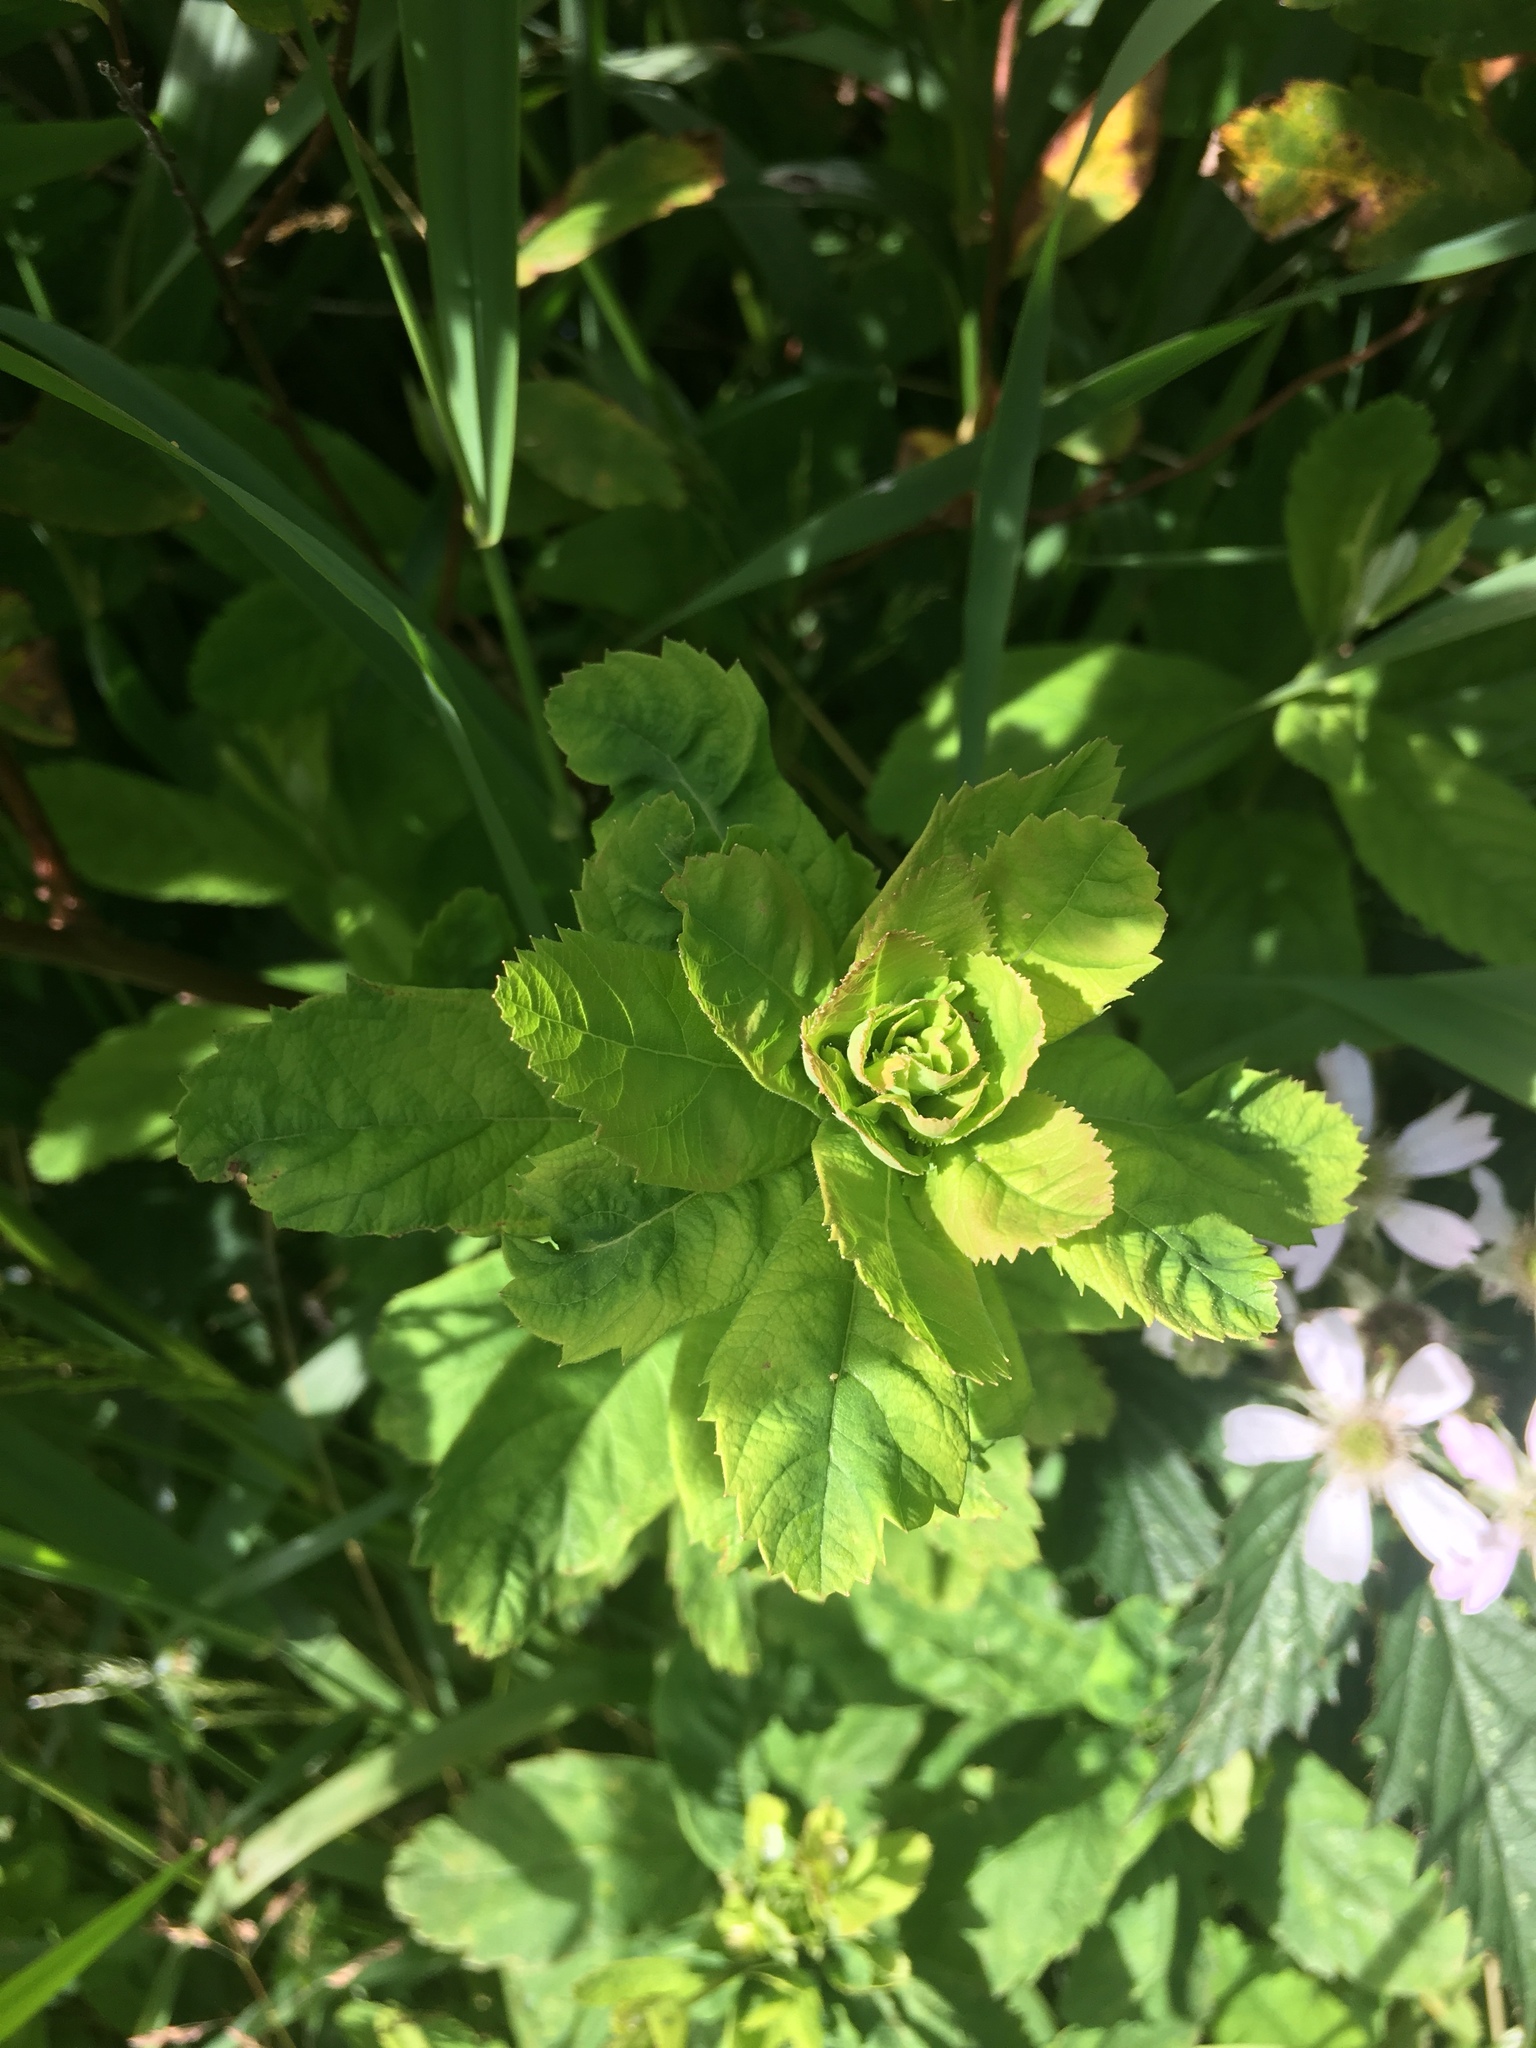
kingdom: Plantae
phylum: Tracheophyta
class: Magnoliopsida
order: Rosales
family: Rosaceae
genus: Spiraea
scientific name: Spiraea douglasii
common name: Steeplebush
